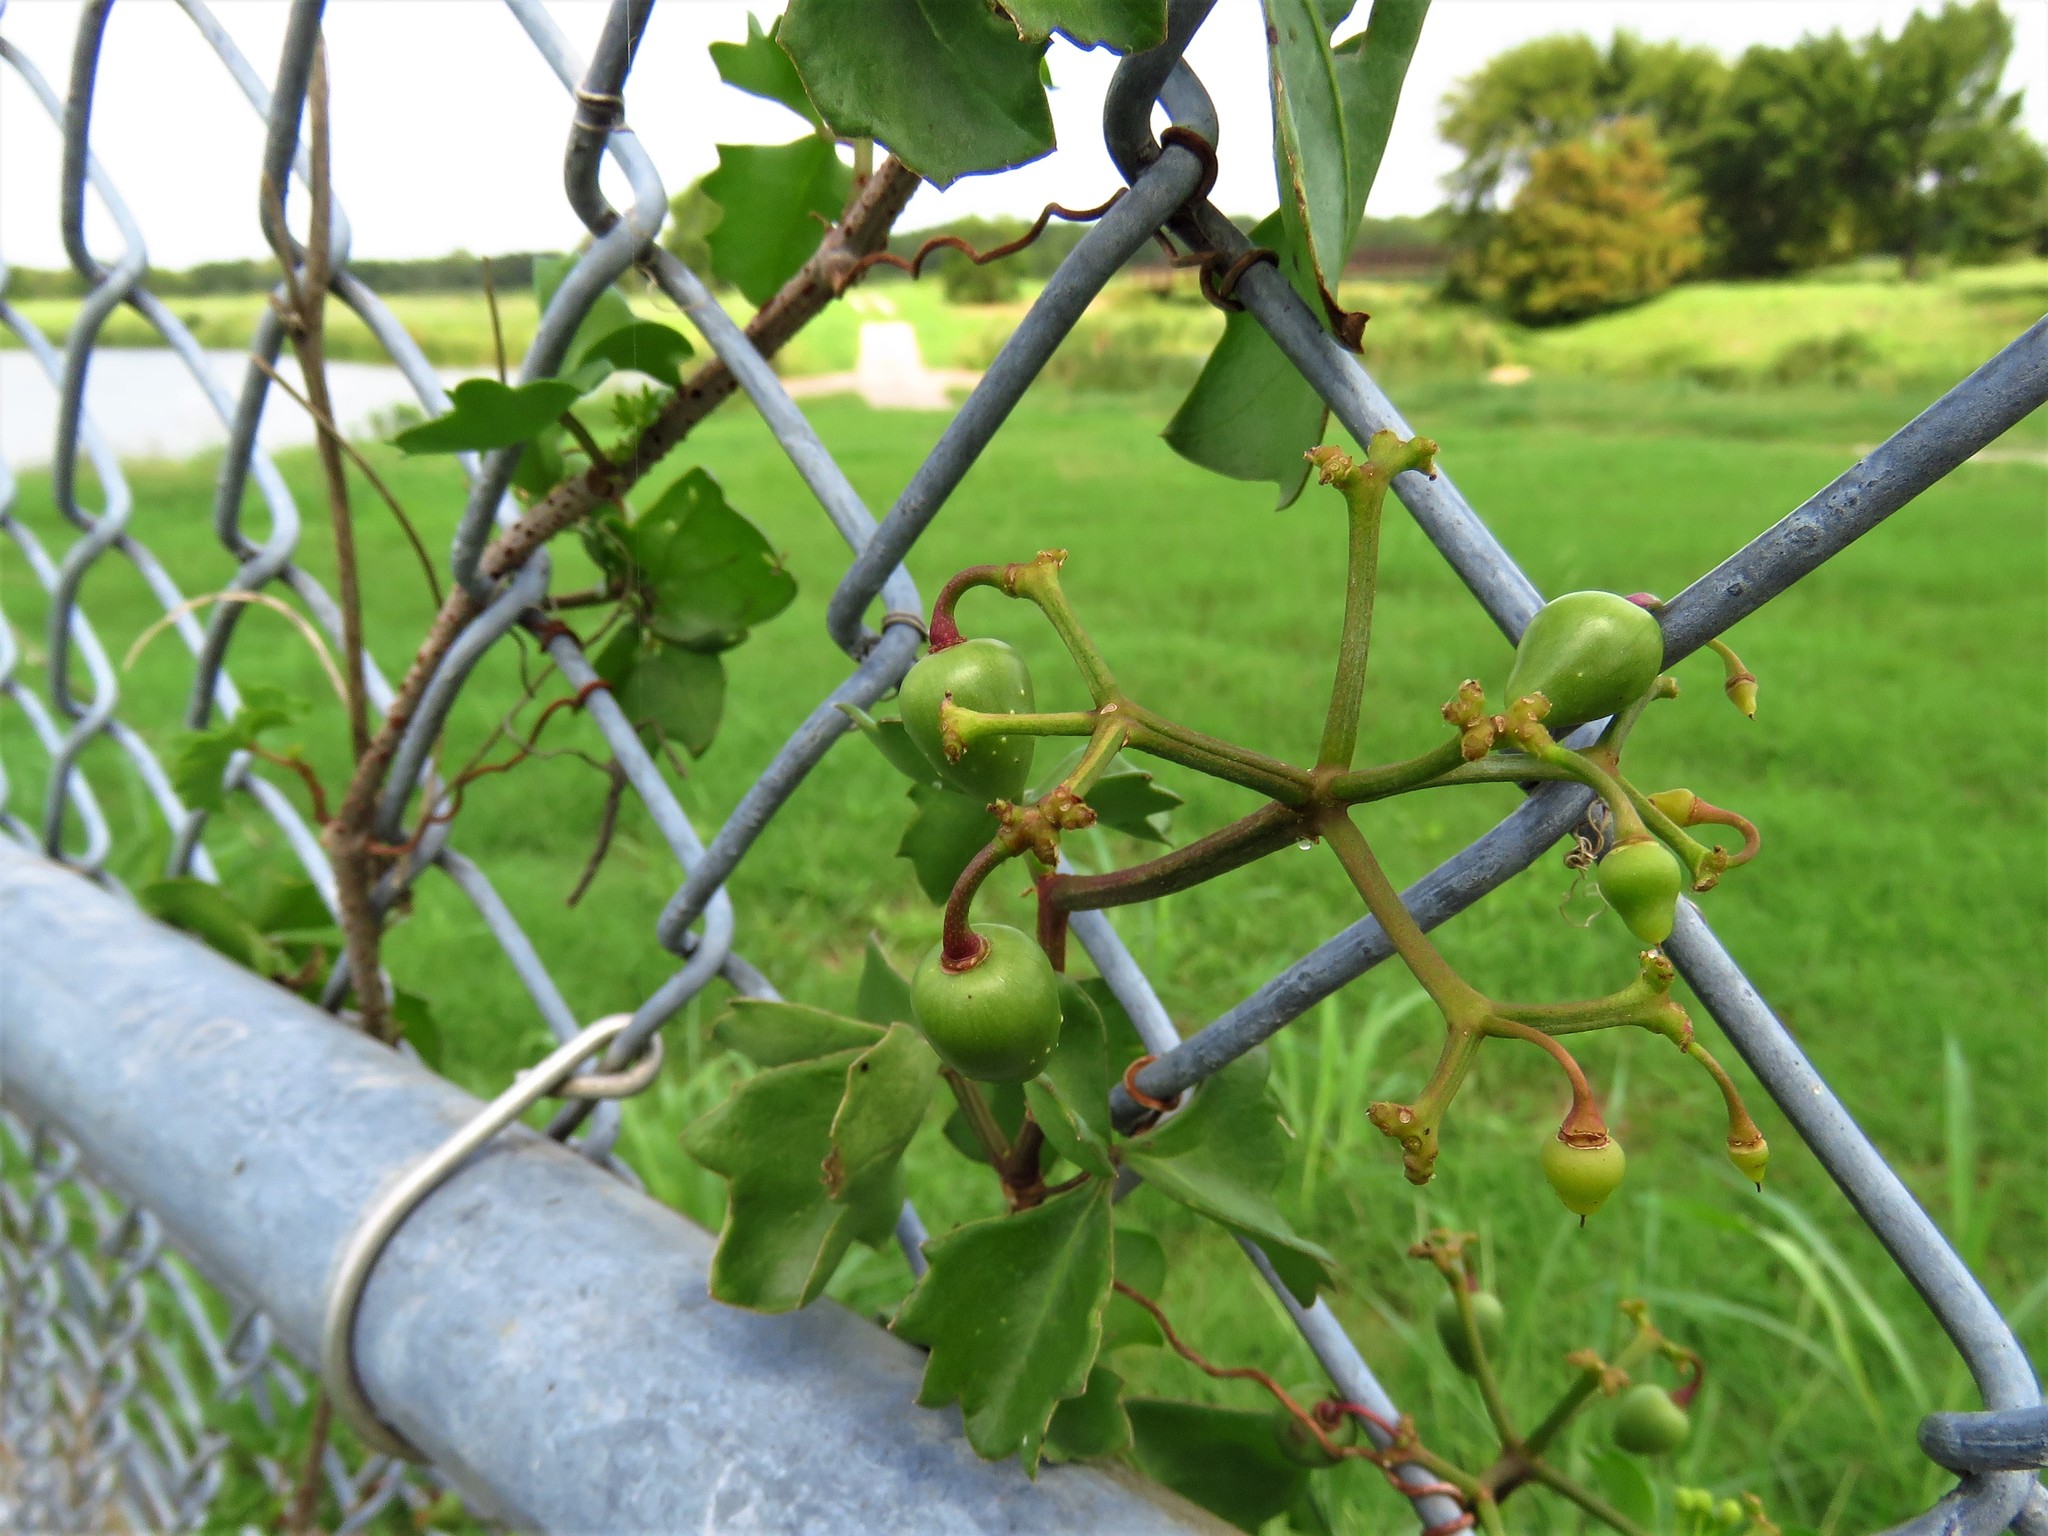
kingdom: Plantae
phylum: Tracheophyta
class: Magnoliopsida
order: Vitales
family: Vitaceae
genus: Cissus
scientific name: Cissus trifoliata
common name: Vine-sorrel
